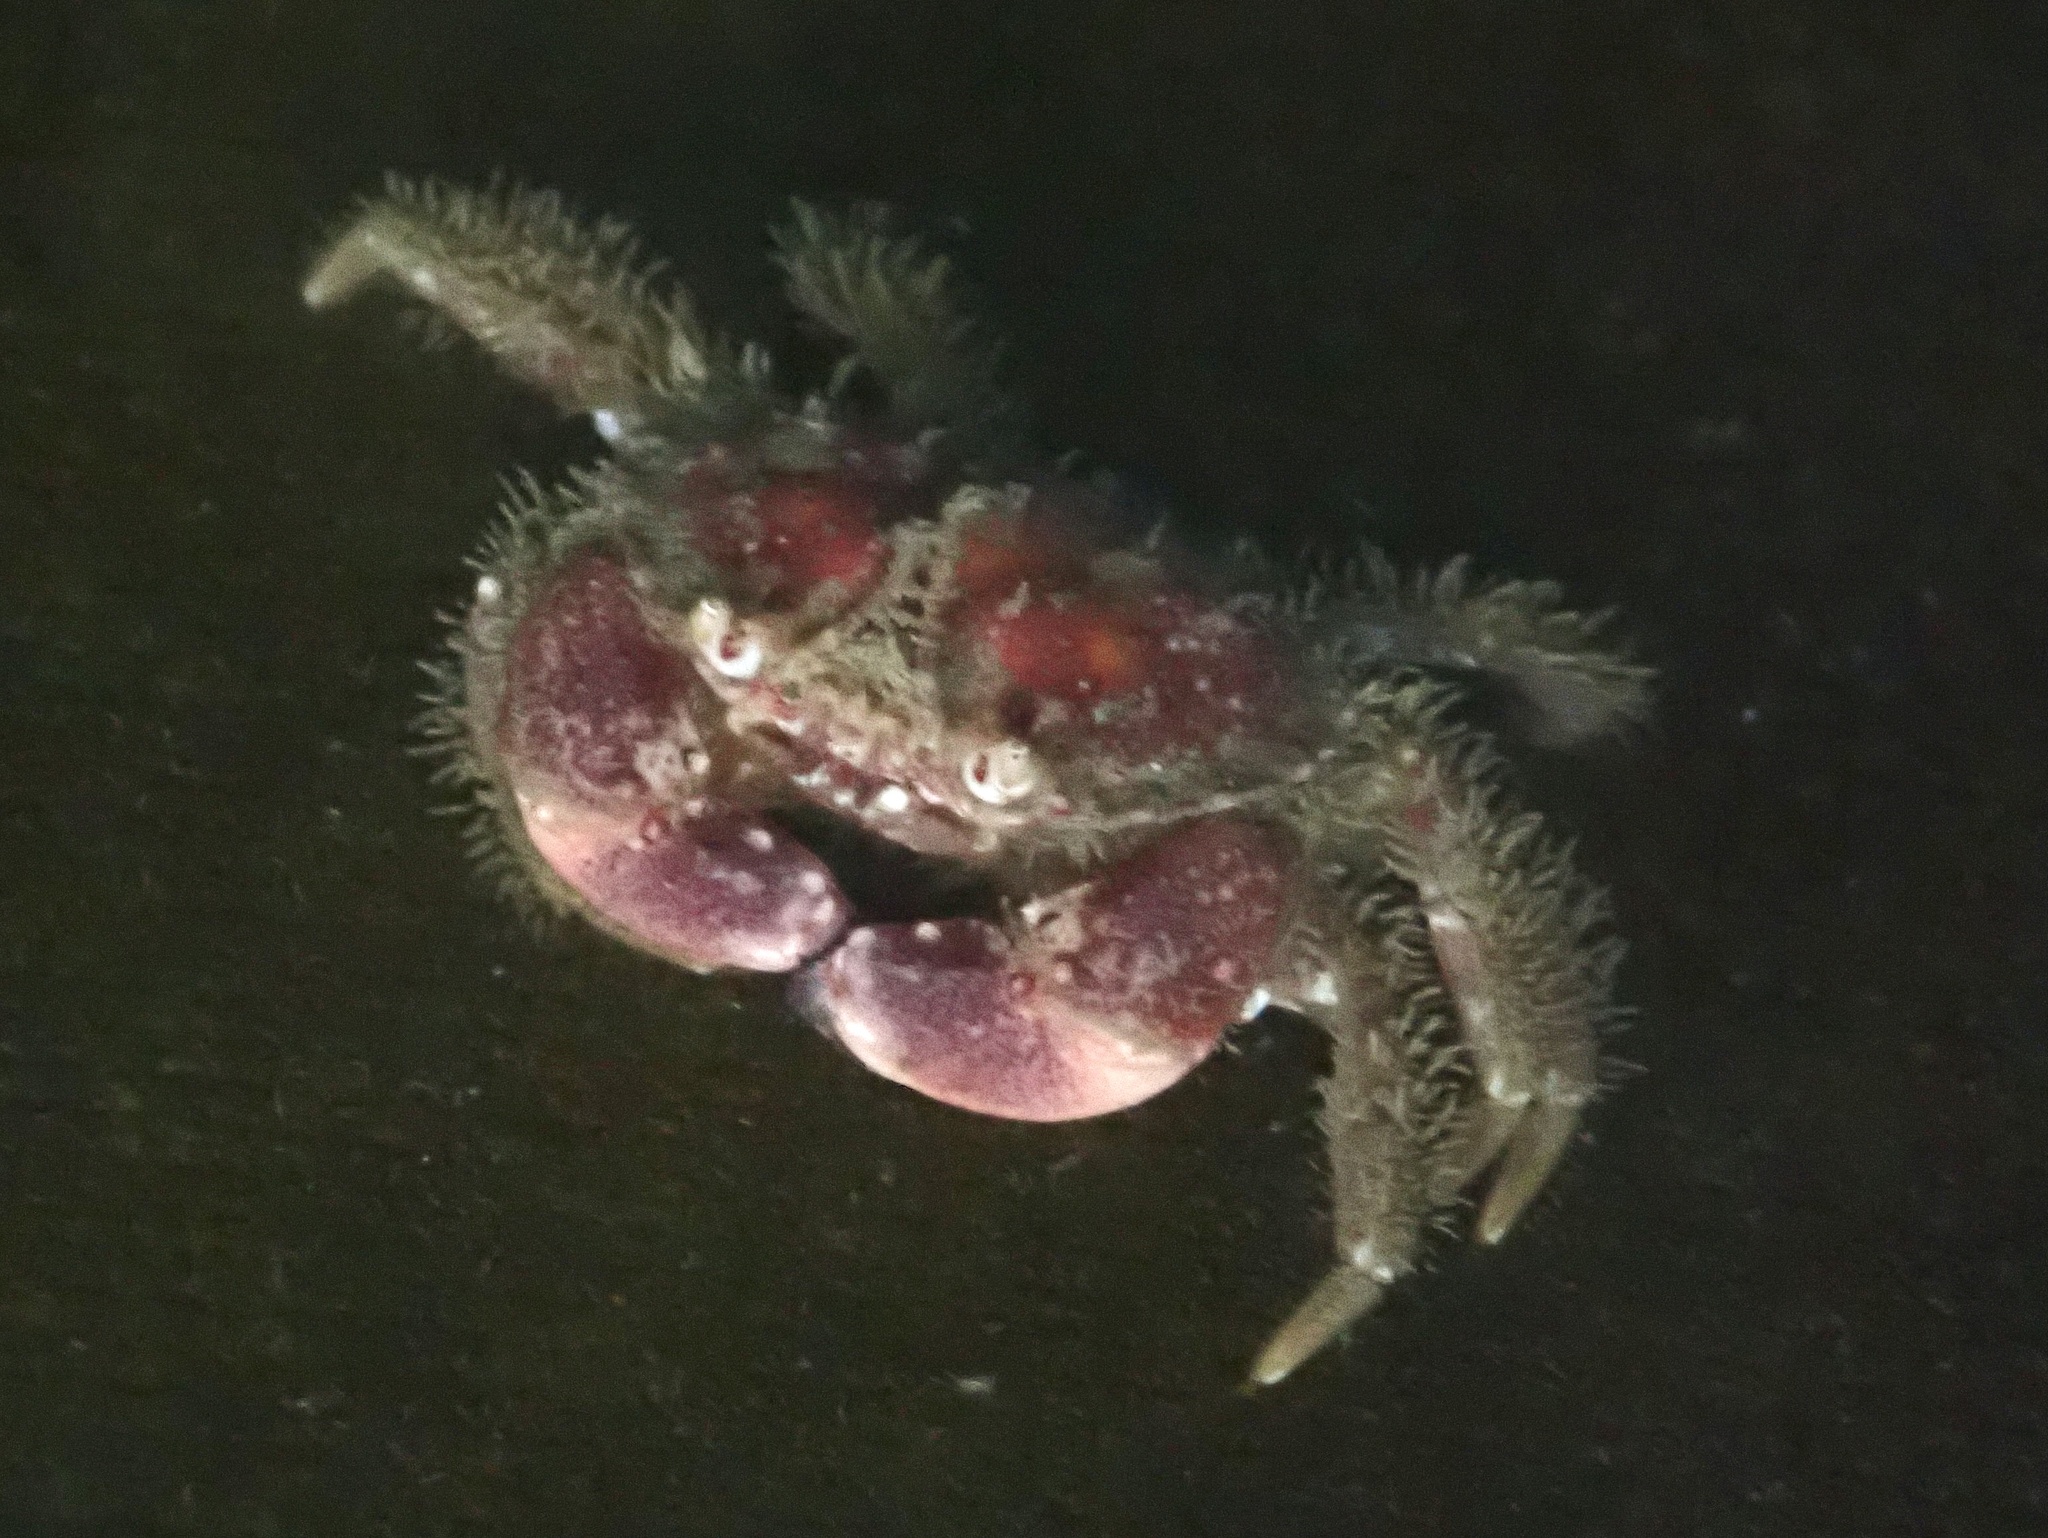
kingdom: Animalia
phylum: Arthropoda
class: Malacostraca
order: Decapoda
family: Cancridae
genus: Glebocarcinus
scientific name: Glebocarcinus oregonensis
